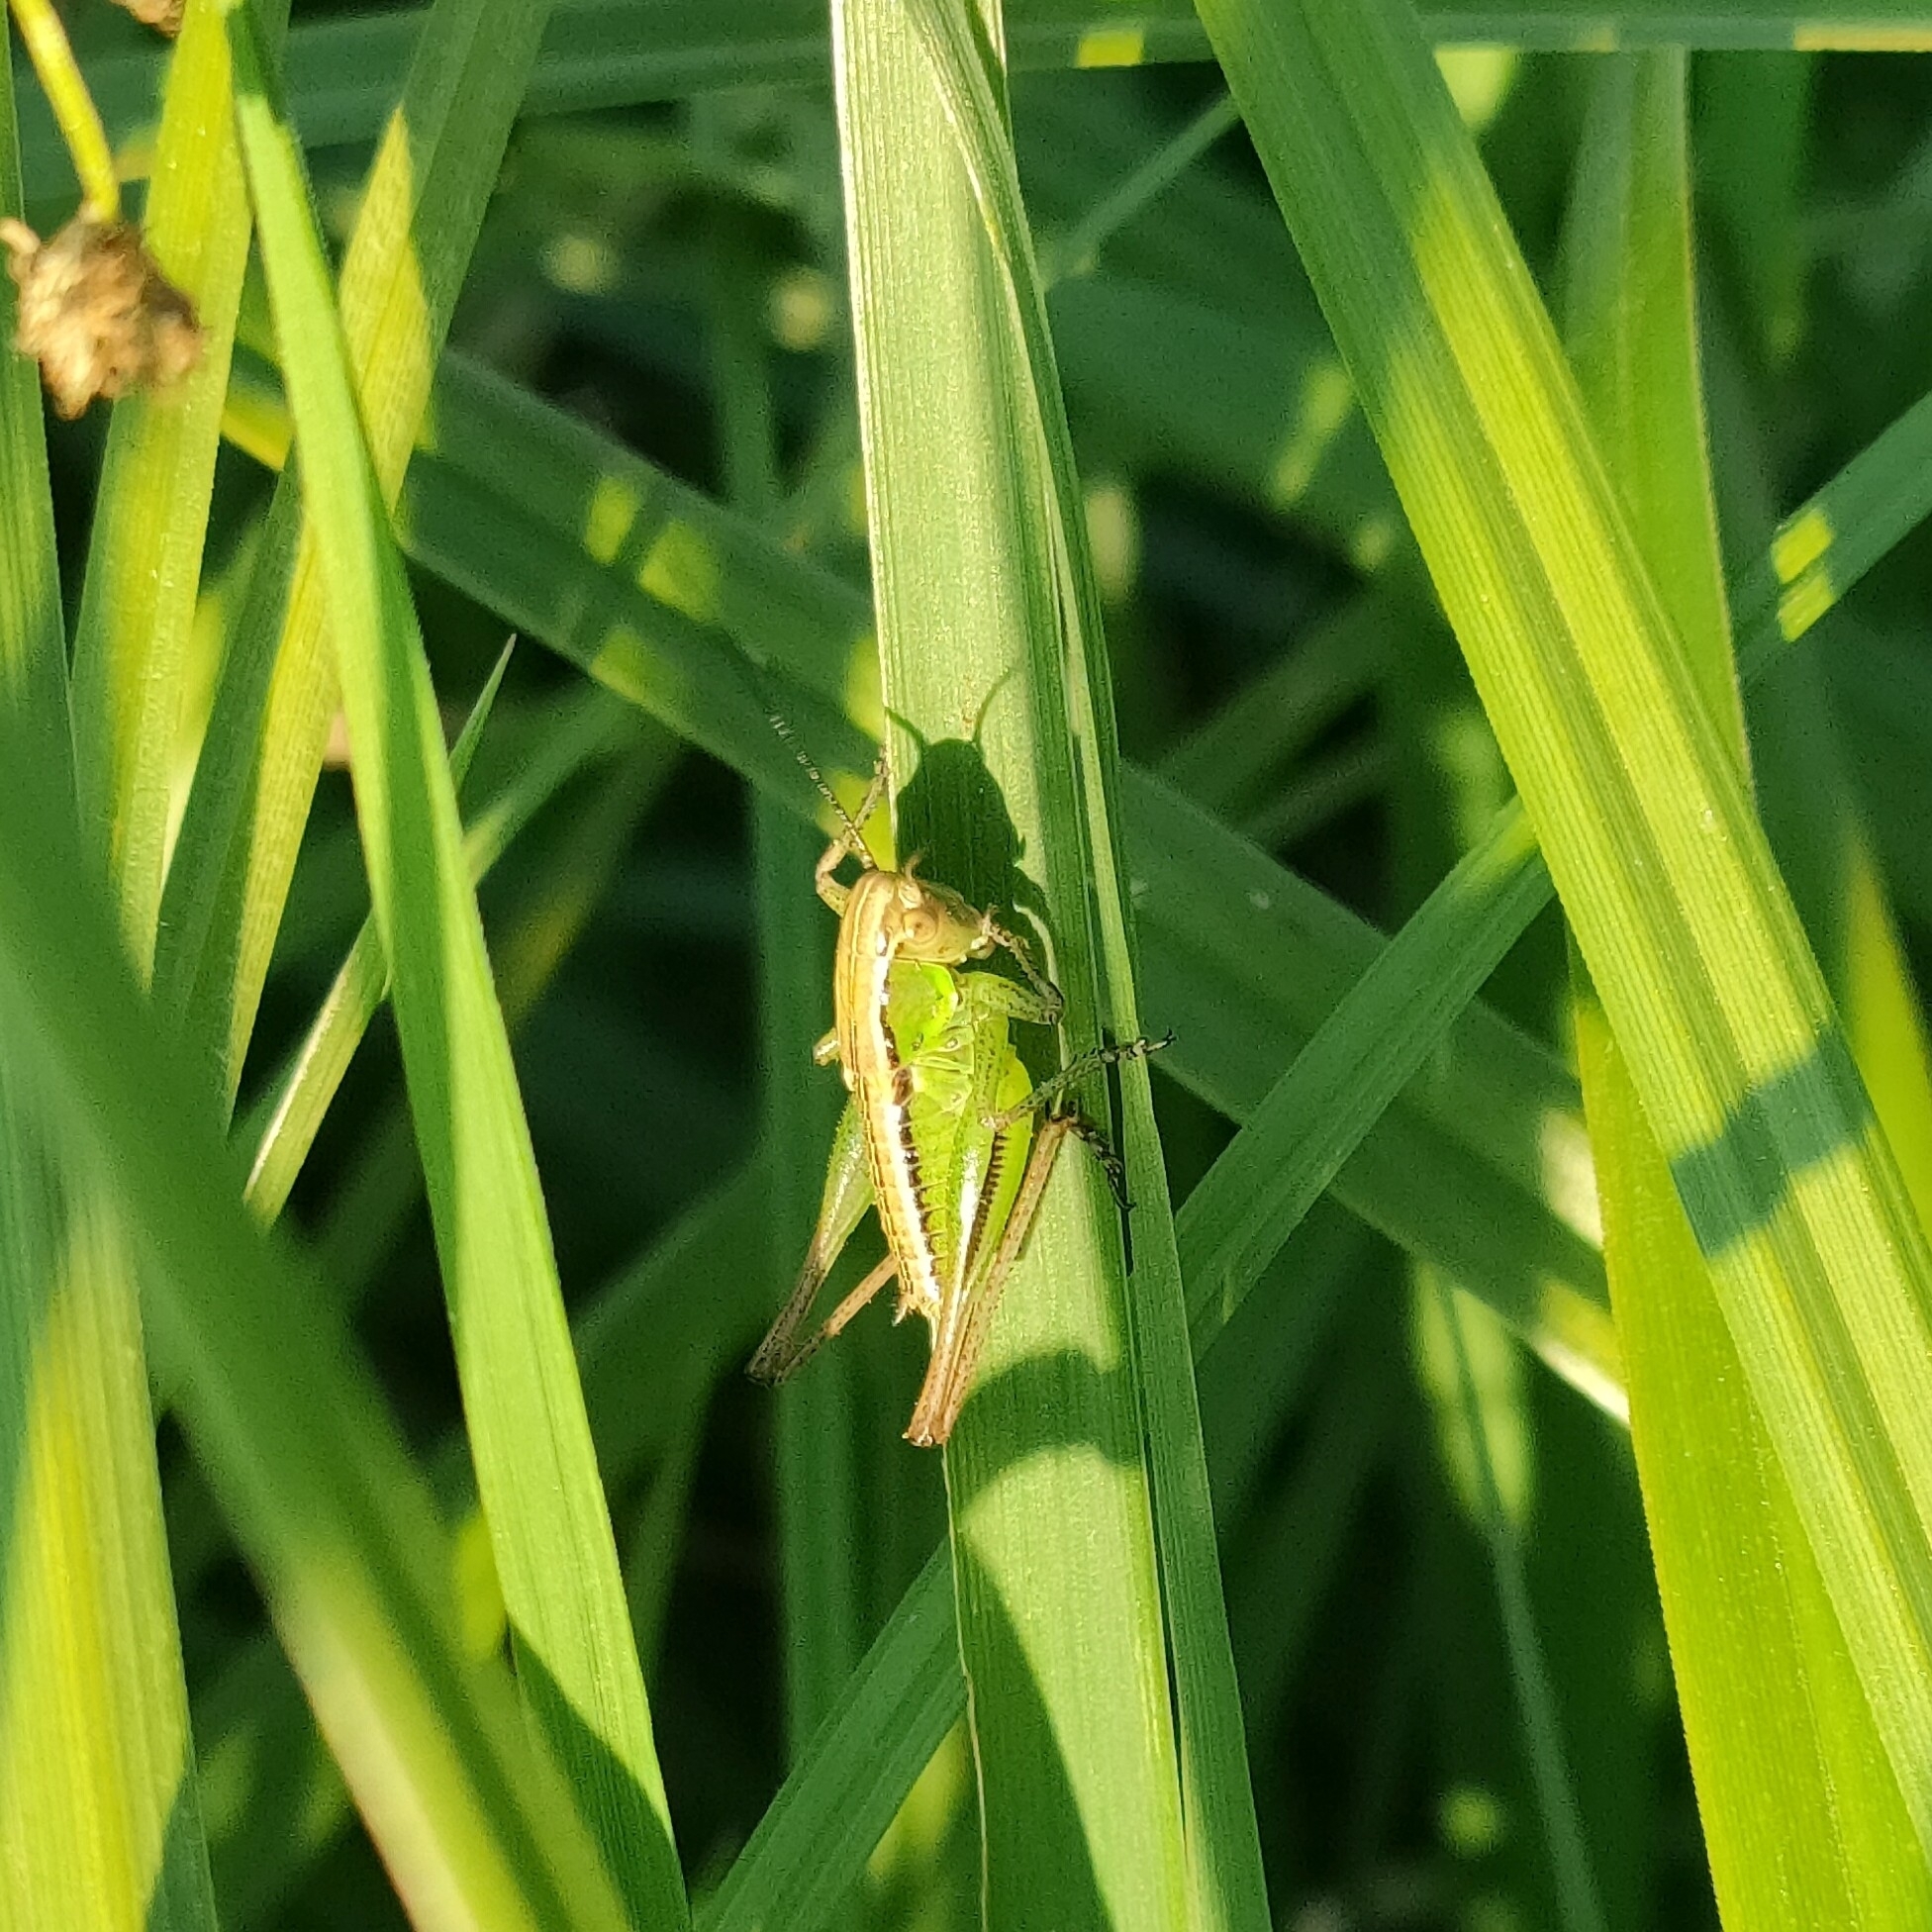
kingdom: Animalia
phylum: Arthropoda
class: Insecta
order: Orthoptera
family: Tettigoniidae
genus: Bicolorana
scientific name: Bicolorana bicolor
